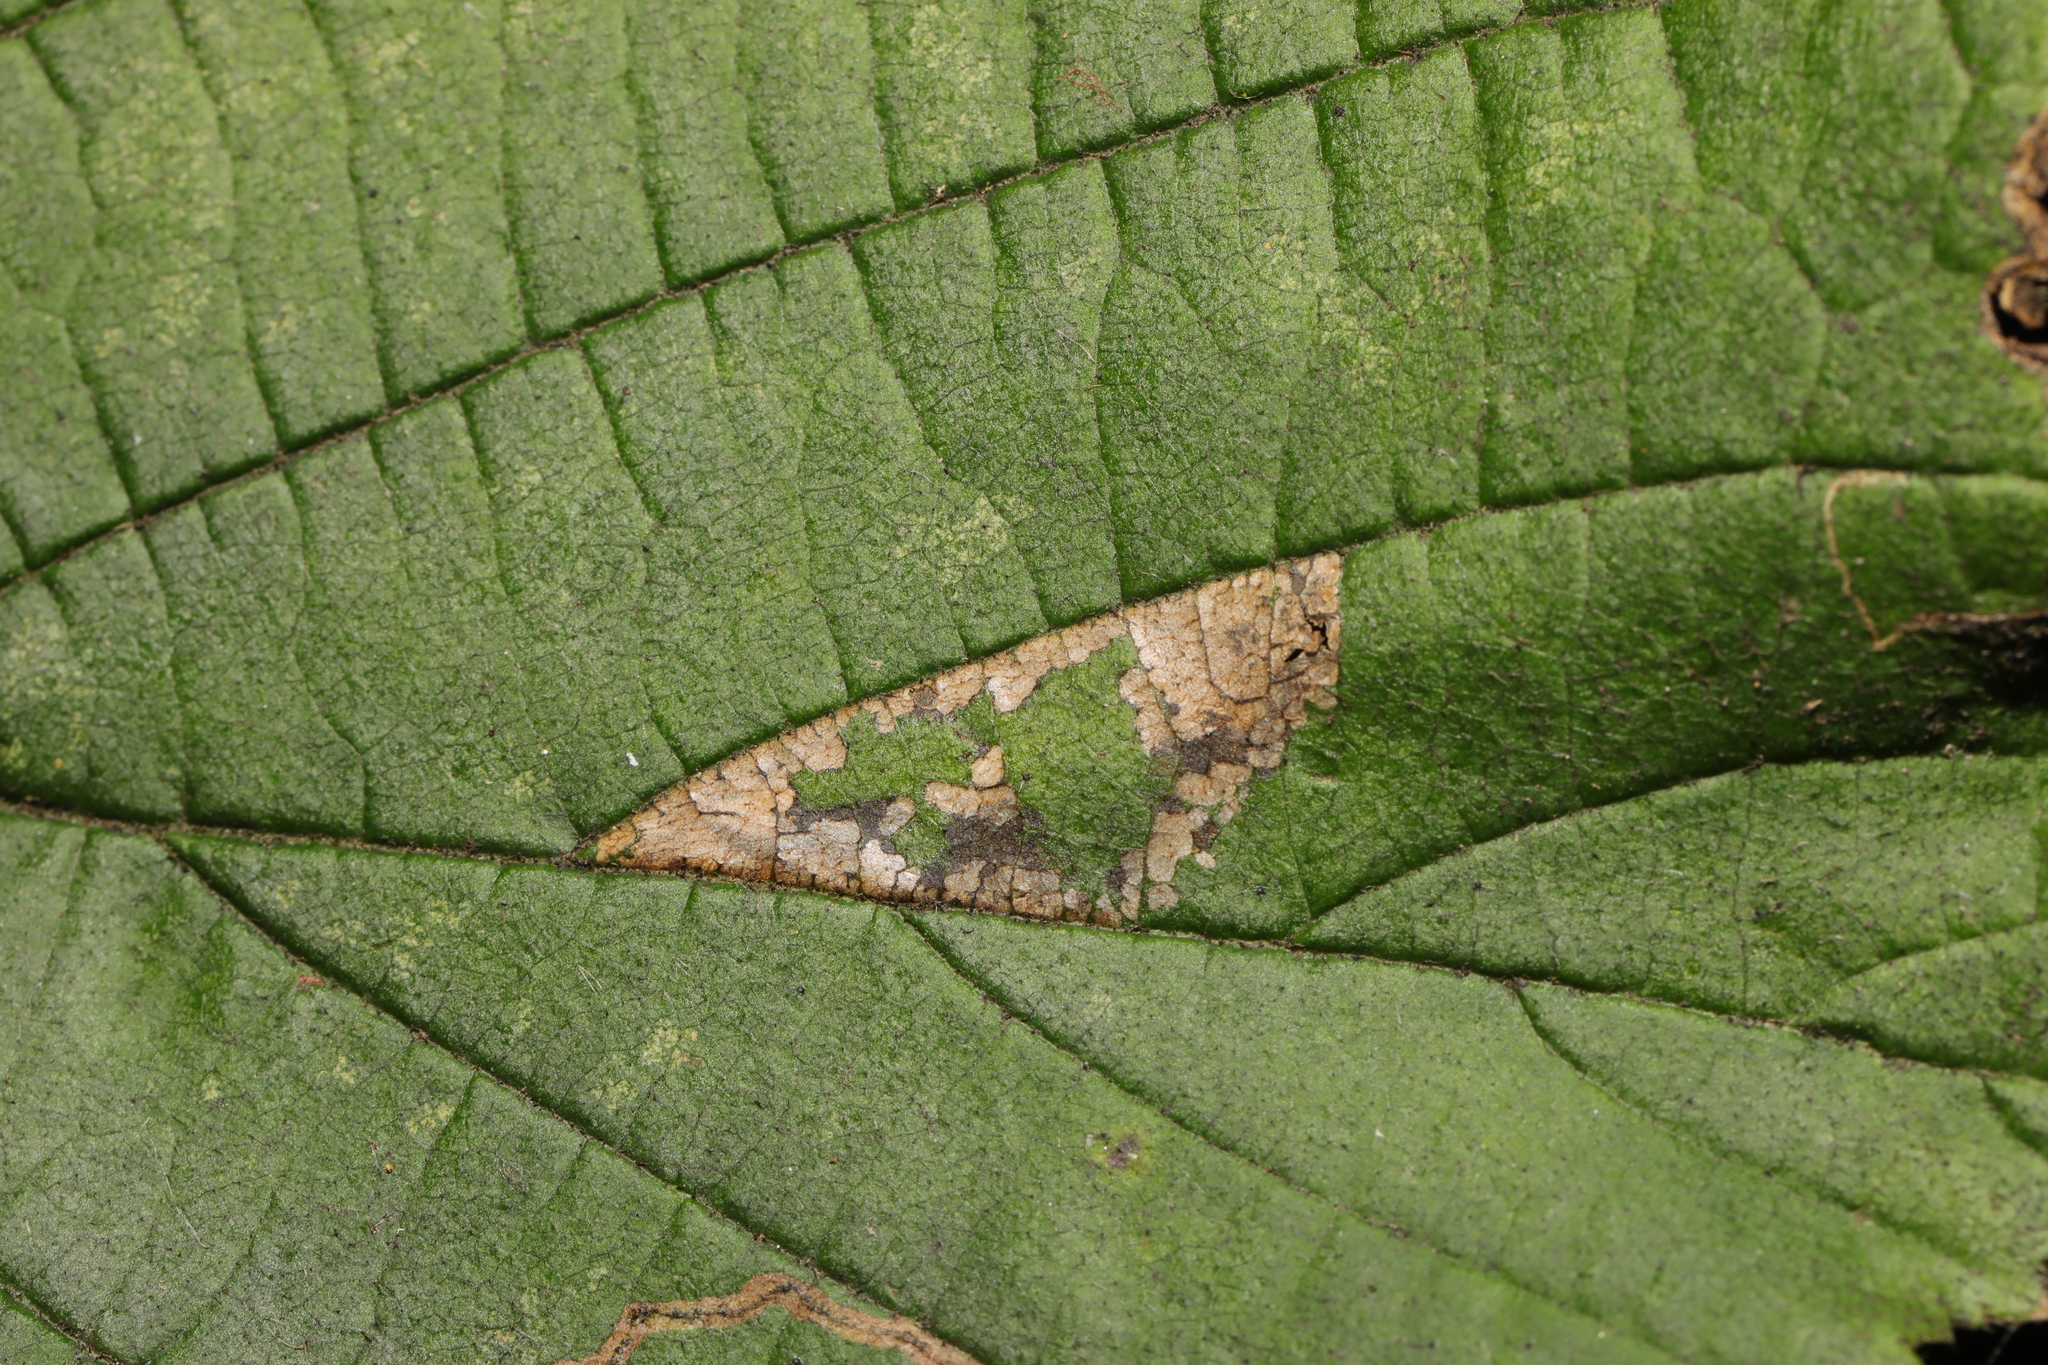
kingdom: Animalia
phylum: Arthropoda
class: Insecta
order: Lepidoptera
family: Gracillariidae
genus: Phyllonorycter
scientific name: Phyllonorycter nicellii
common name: Red hazel midget
